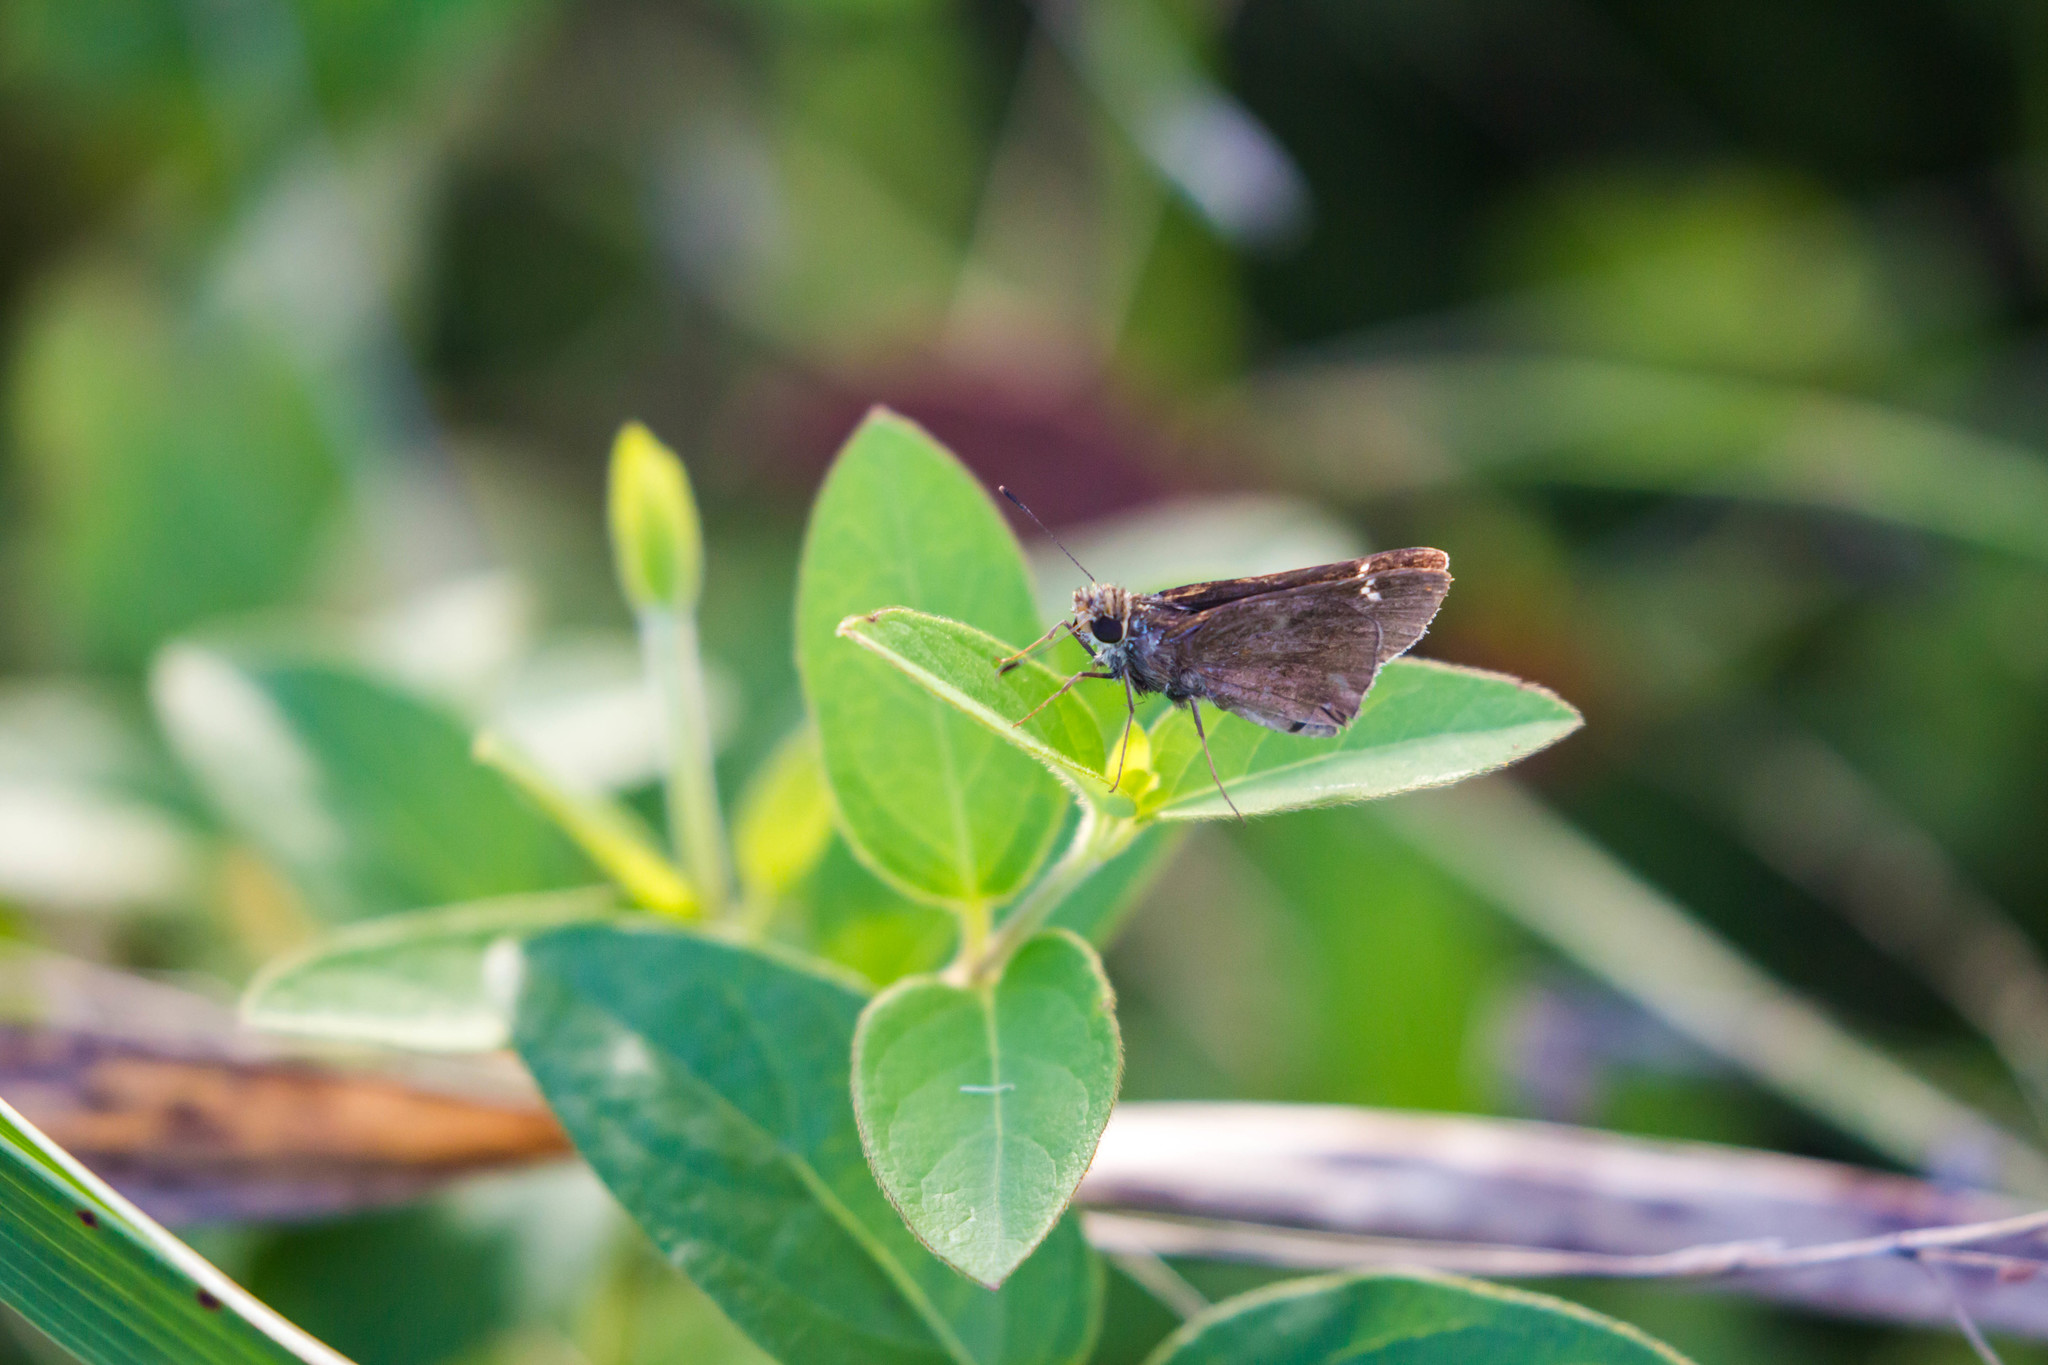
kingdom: Animalia
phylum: Arthropoda
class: Insecta
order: Lepidoptera
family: Hesperiidae
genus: Lerema
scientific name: Lerema accius
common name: Clouded skipper
